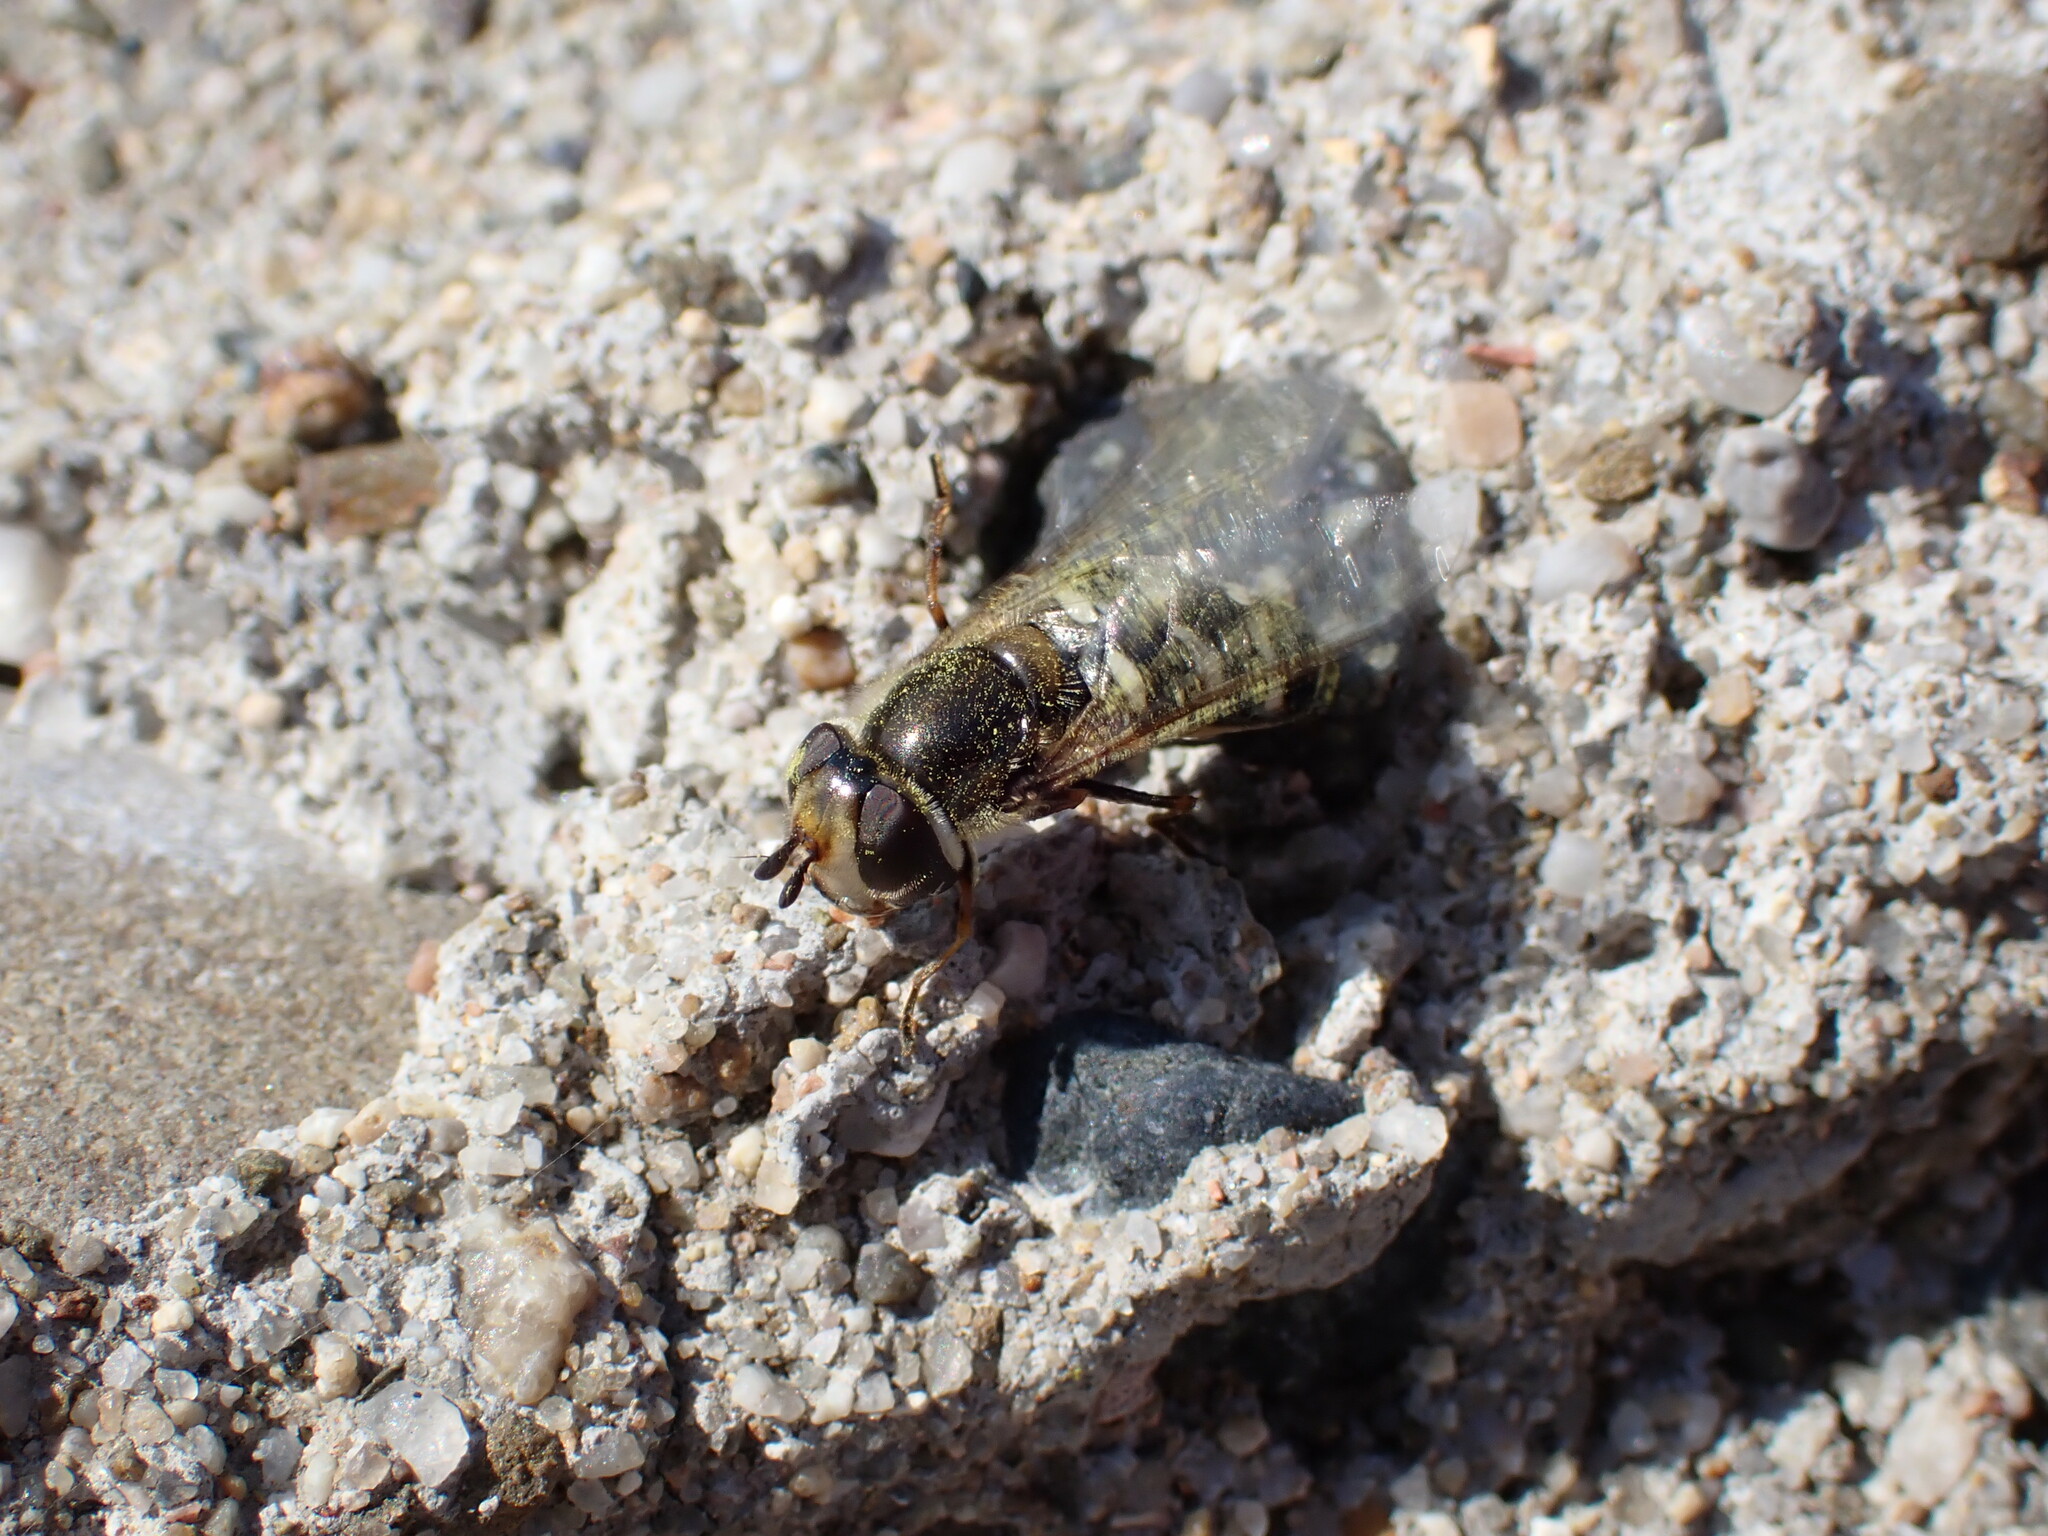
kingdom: Animalia
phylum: Arthropoda
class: Insecta
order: Diptera
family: Syrphidae
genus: Scaeva
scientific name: Scaeva affinis
